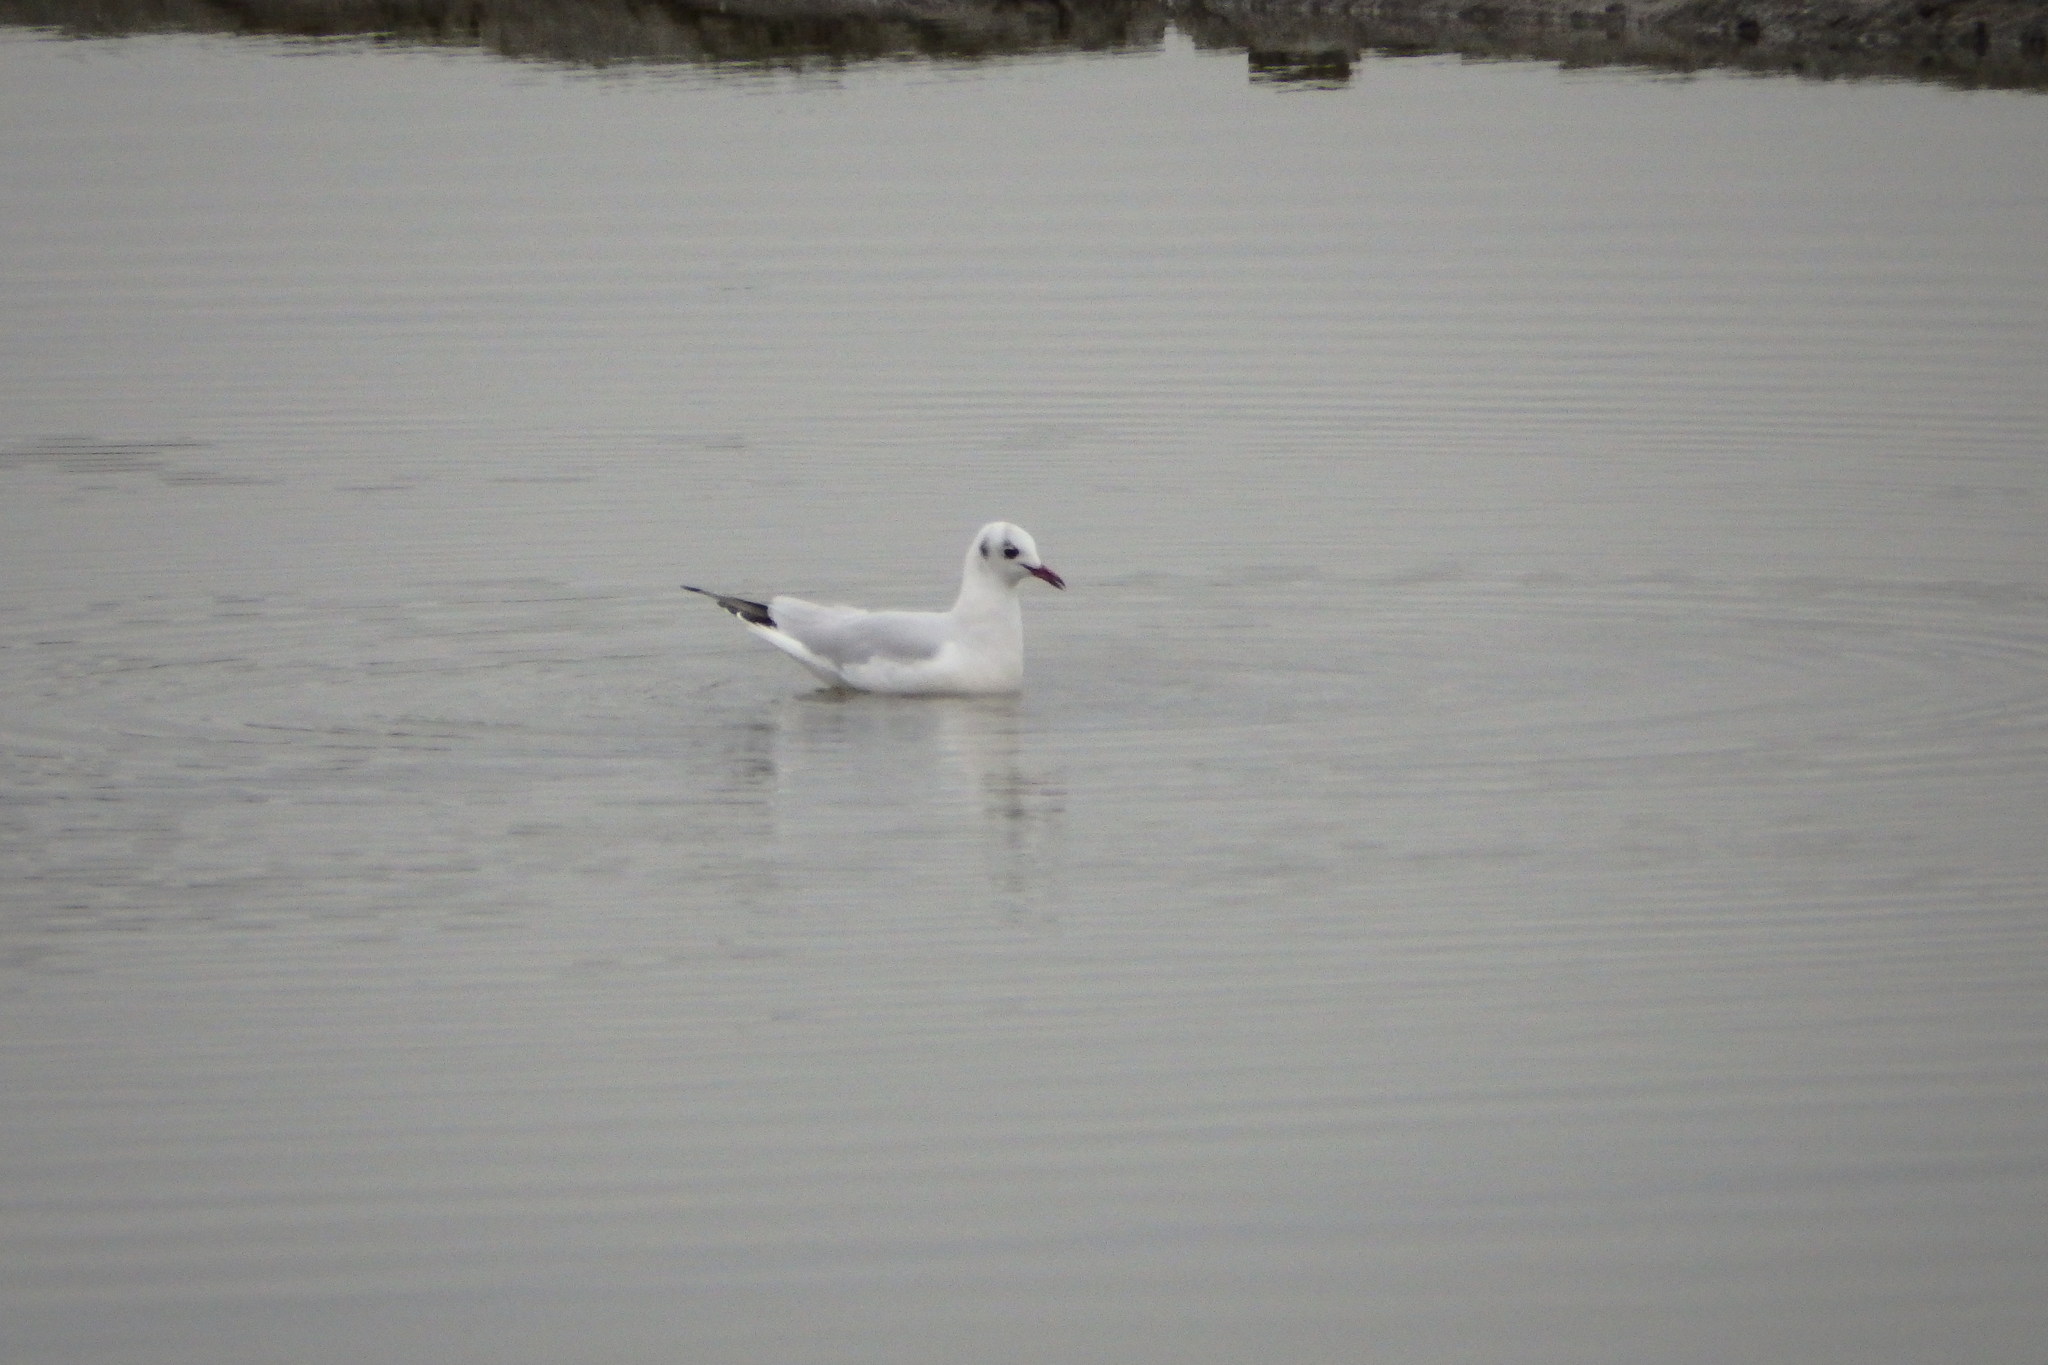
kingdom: Animalia
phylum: Chordata
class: Aves
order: Charadriiformes
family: Laridae
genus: Chroicocephalus
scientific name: Chroicocephalus ridibundus
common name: Black-headed gull
